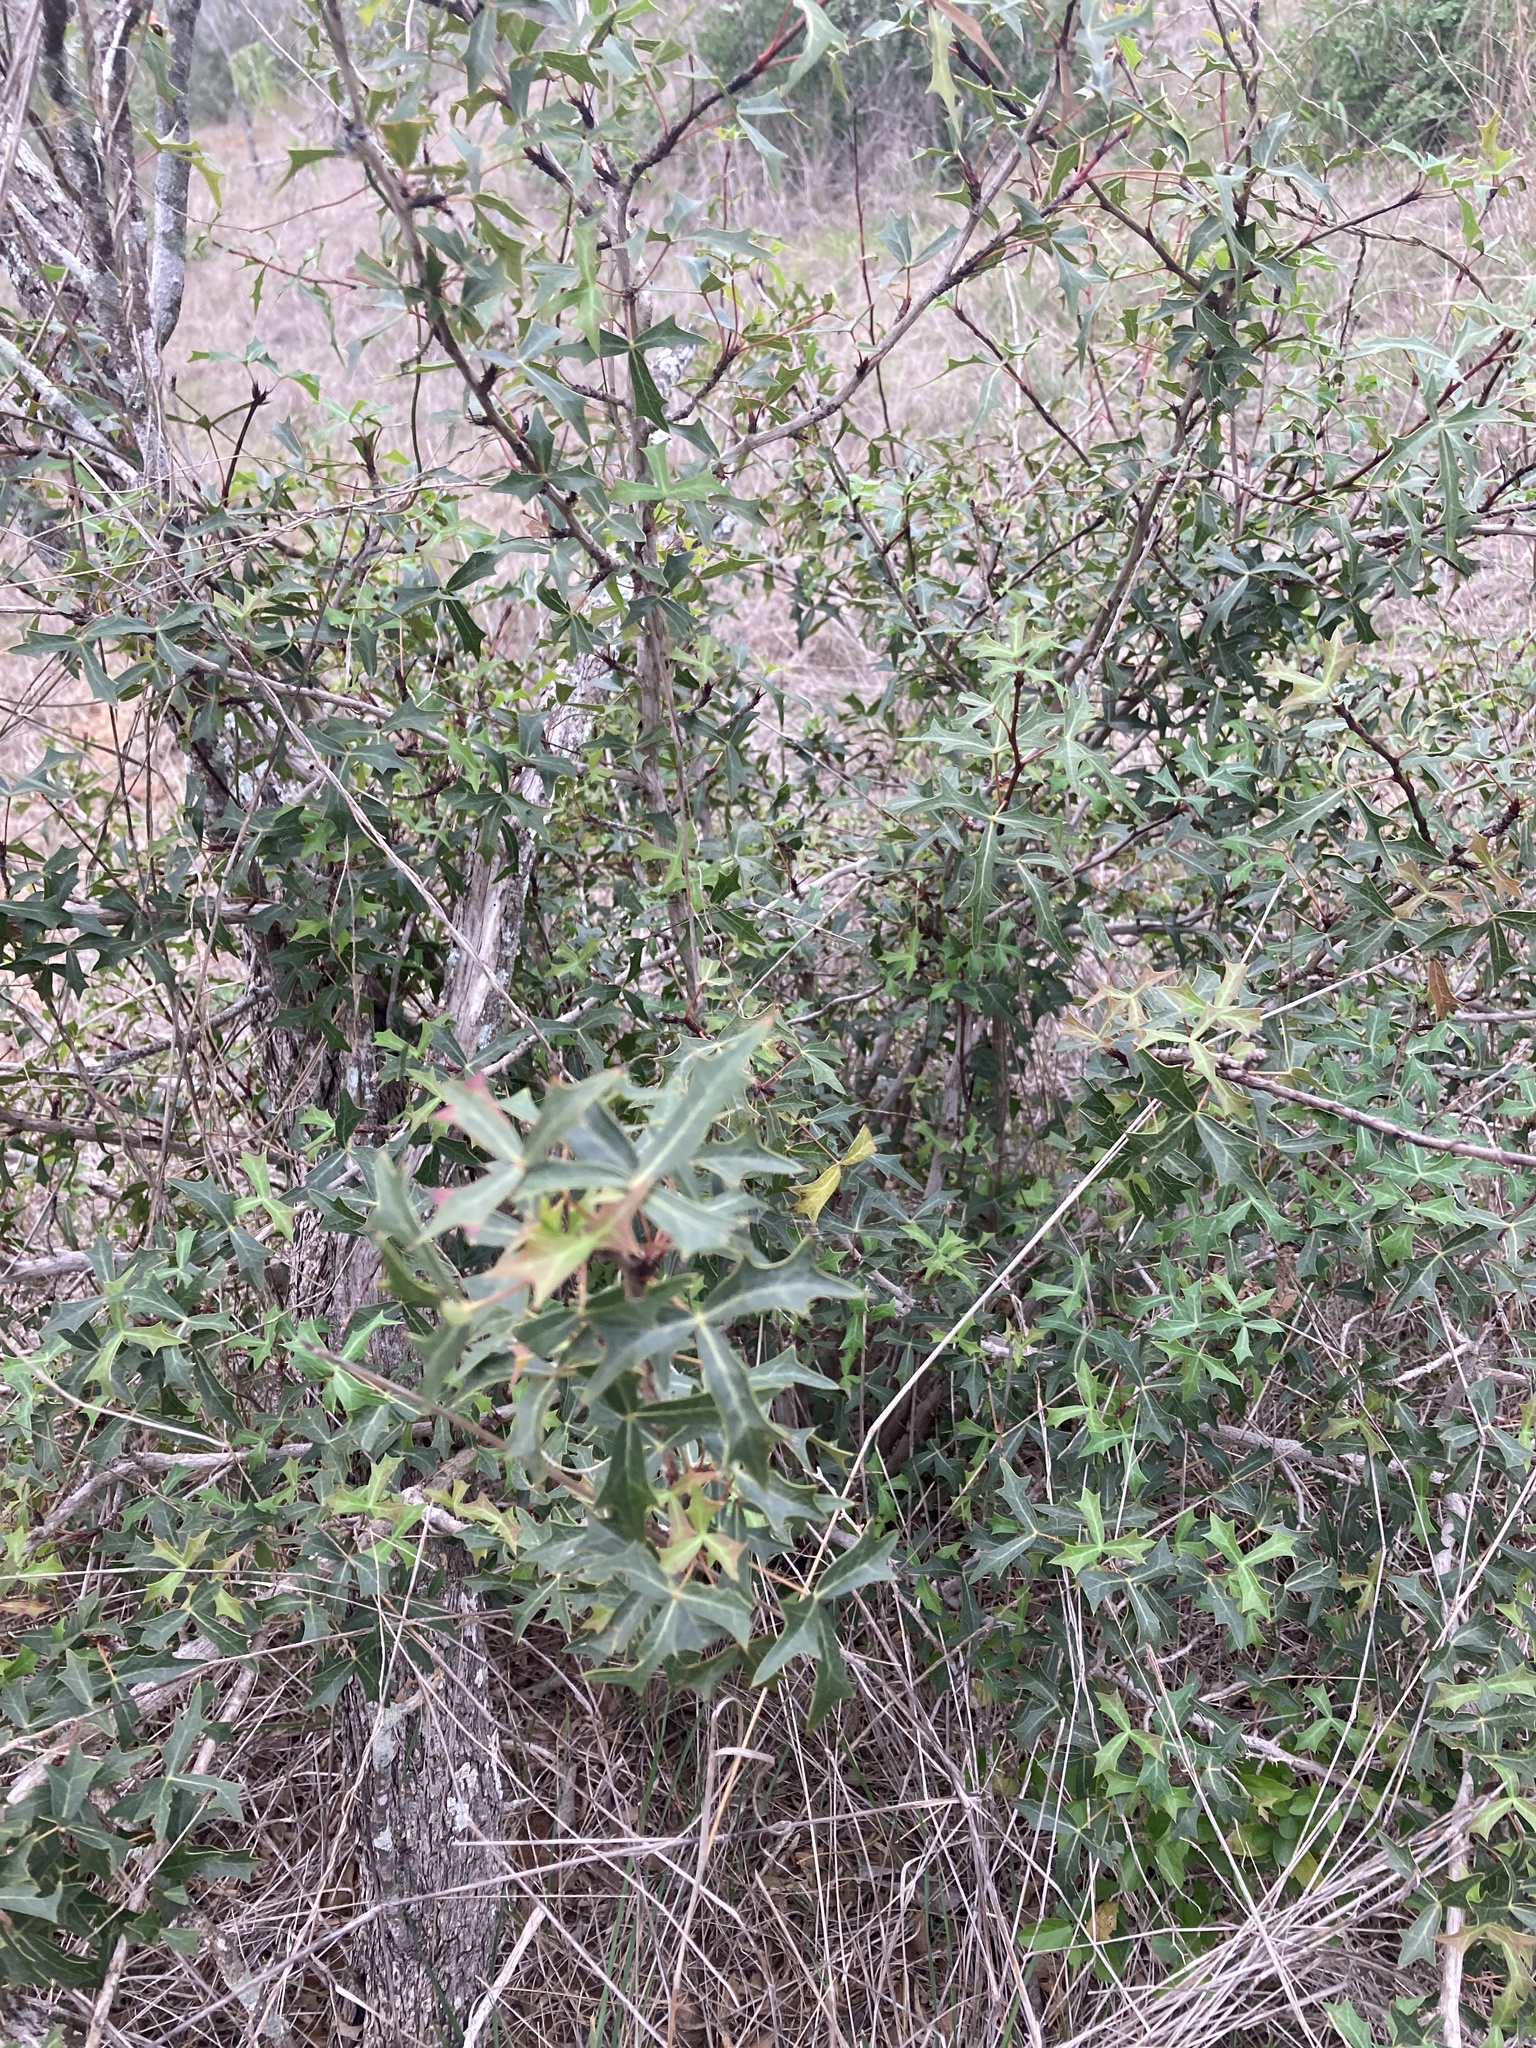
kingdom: Plantae
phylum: Tracheophyta
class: Magnoliopsida
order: Ranunculales
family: Berberidaceae
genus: Alloberberis
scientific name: Alloberberis trifoliolata
